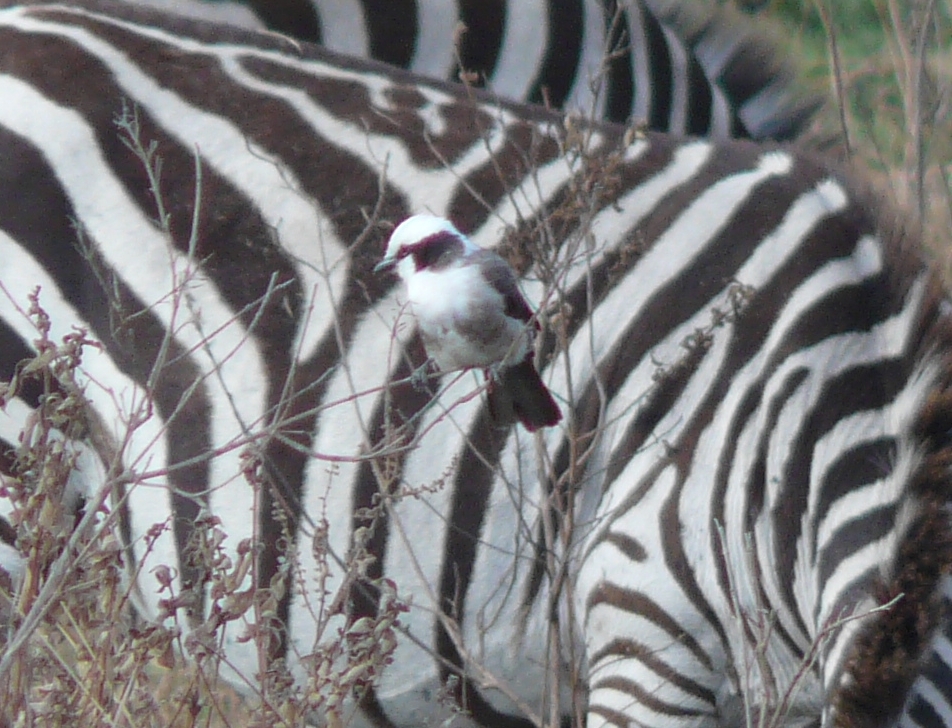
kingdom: Animalia
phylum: Chordata
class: Aves
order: Passeriformes
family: Laniidae
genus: Eurocephalus
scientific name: Eurocephalus ruppelli
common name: Northern white-crowned shrike
